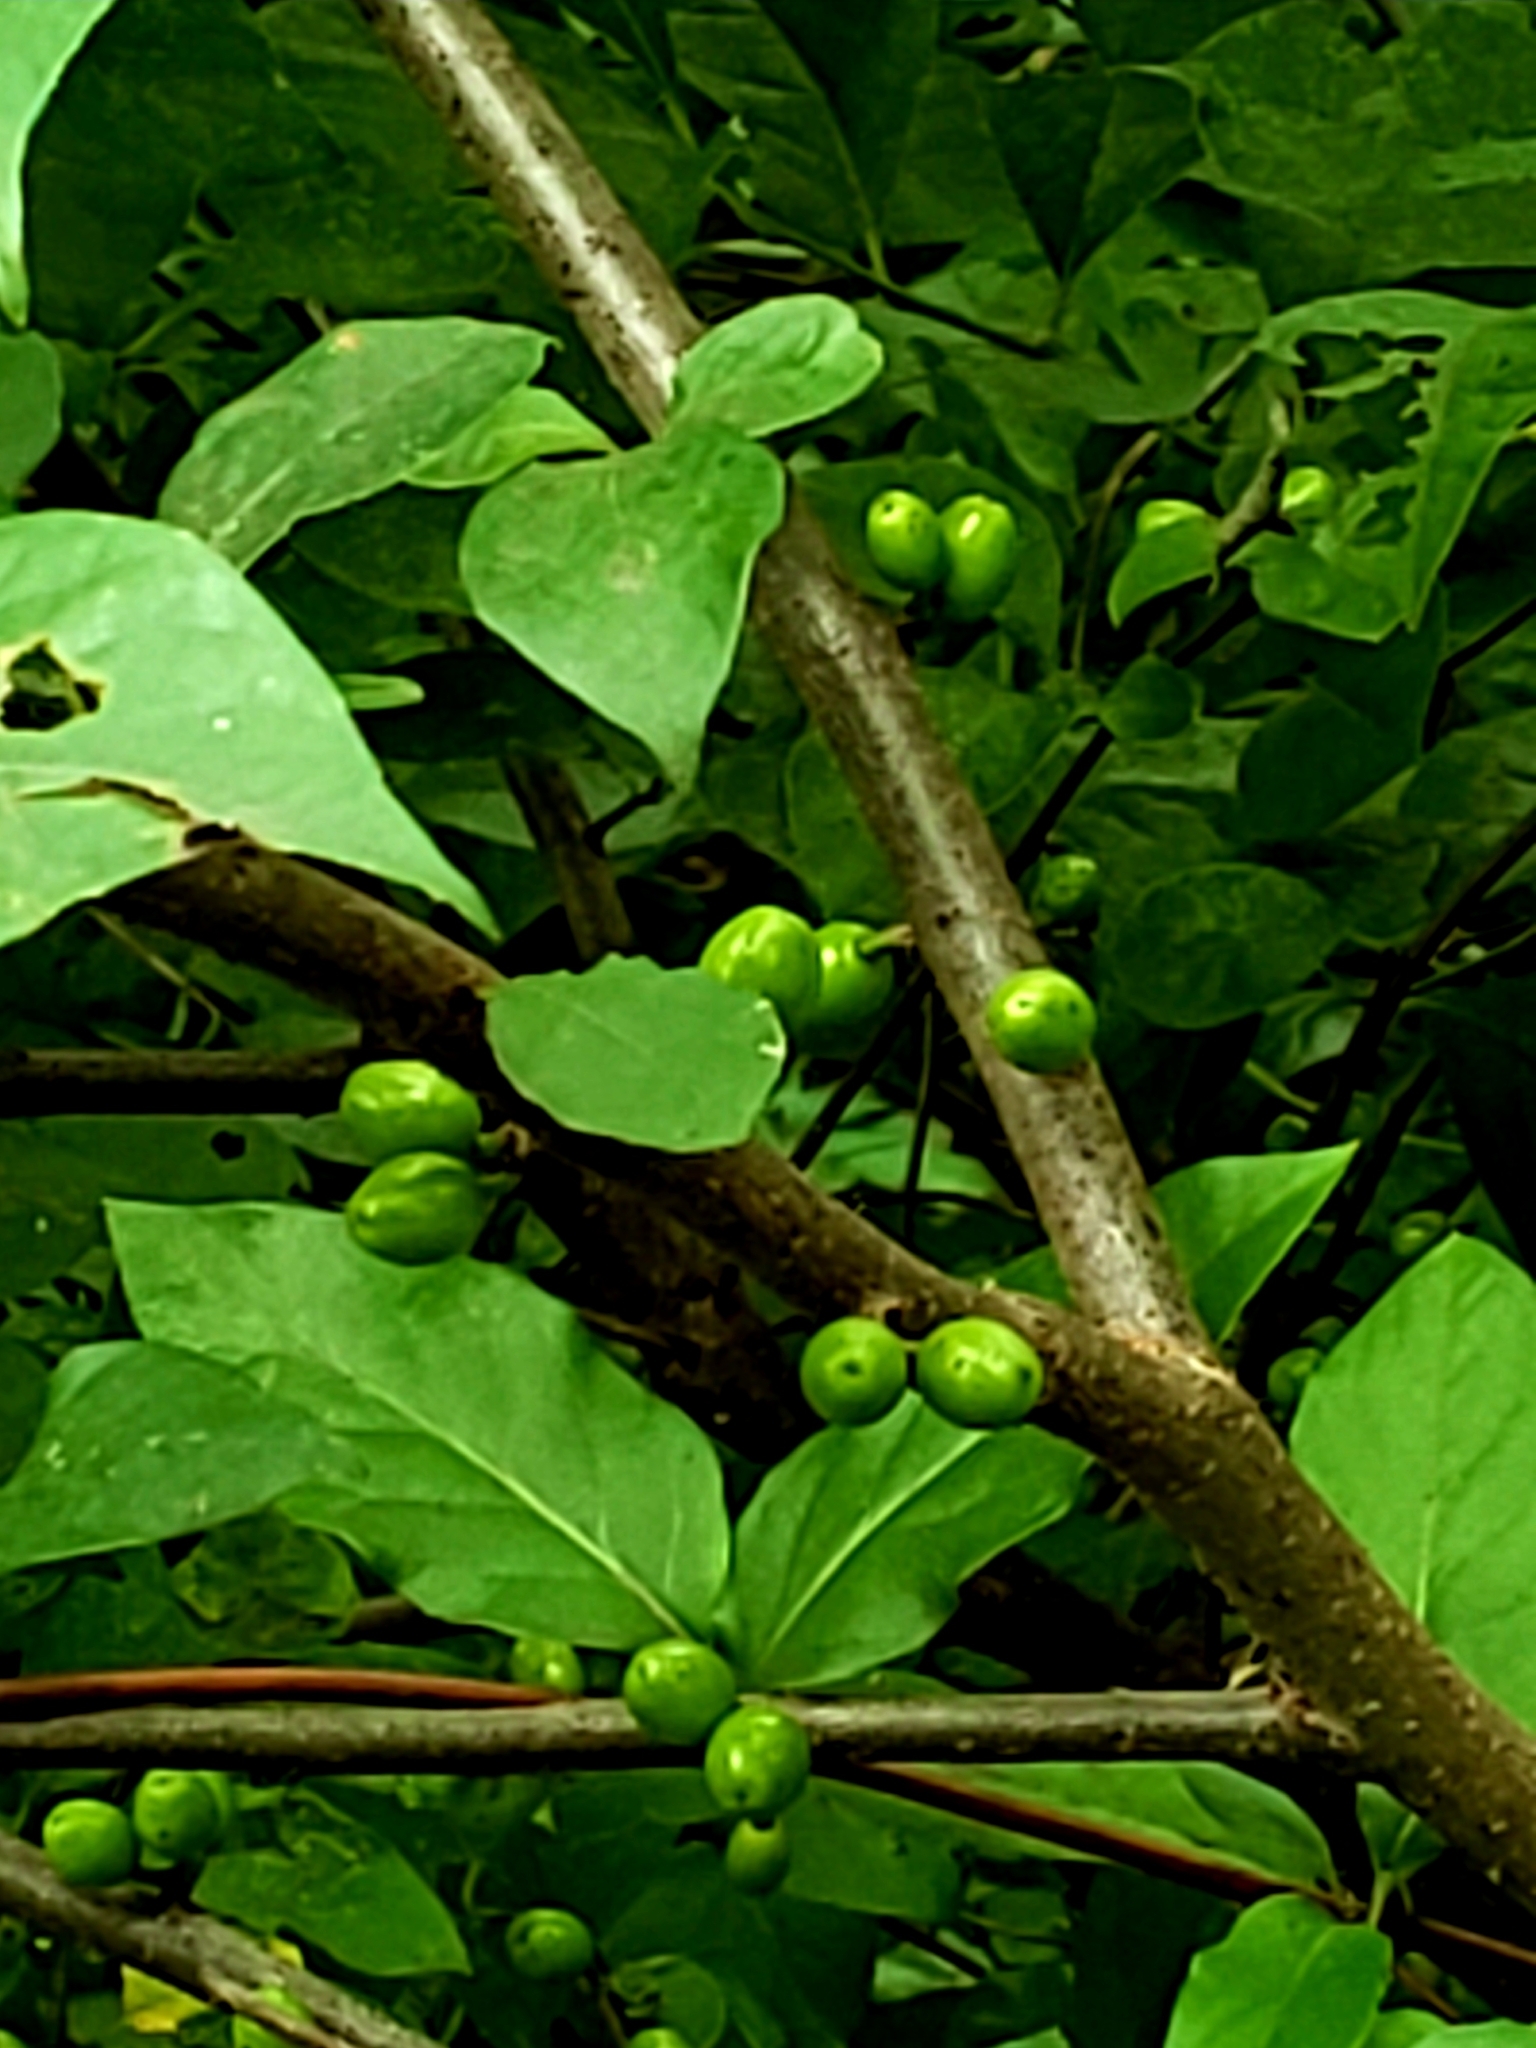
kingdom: Plantae
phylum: Tracheophyta
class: Magnoliopsida
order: Laurales
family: Lauraceae
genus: Lindera
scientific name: Lindera benzoin
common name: Spicebush
